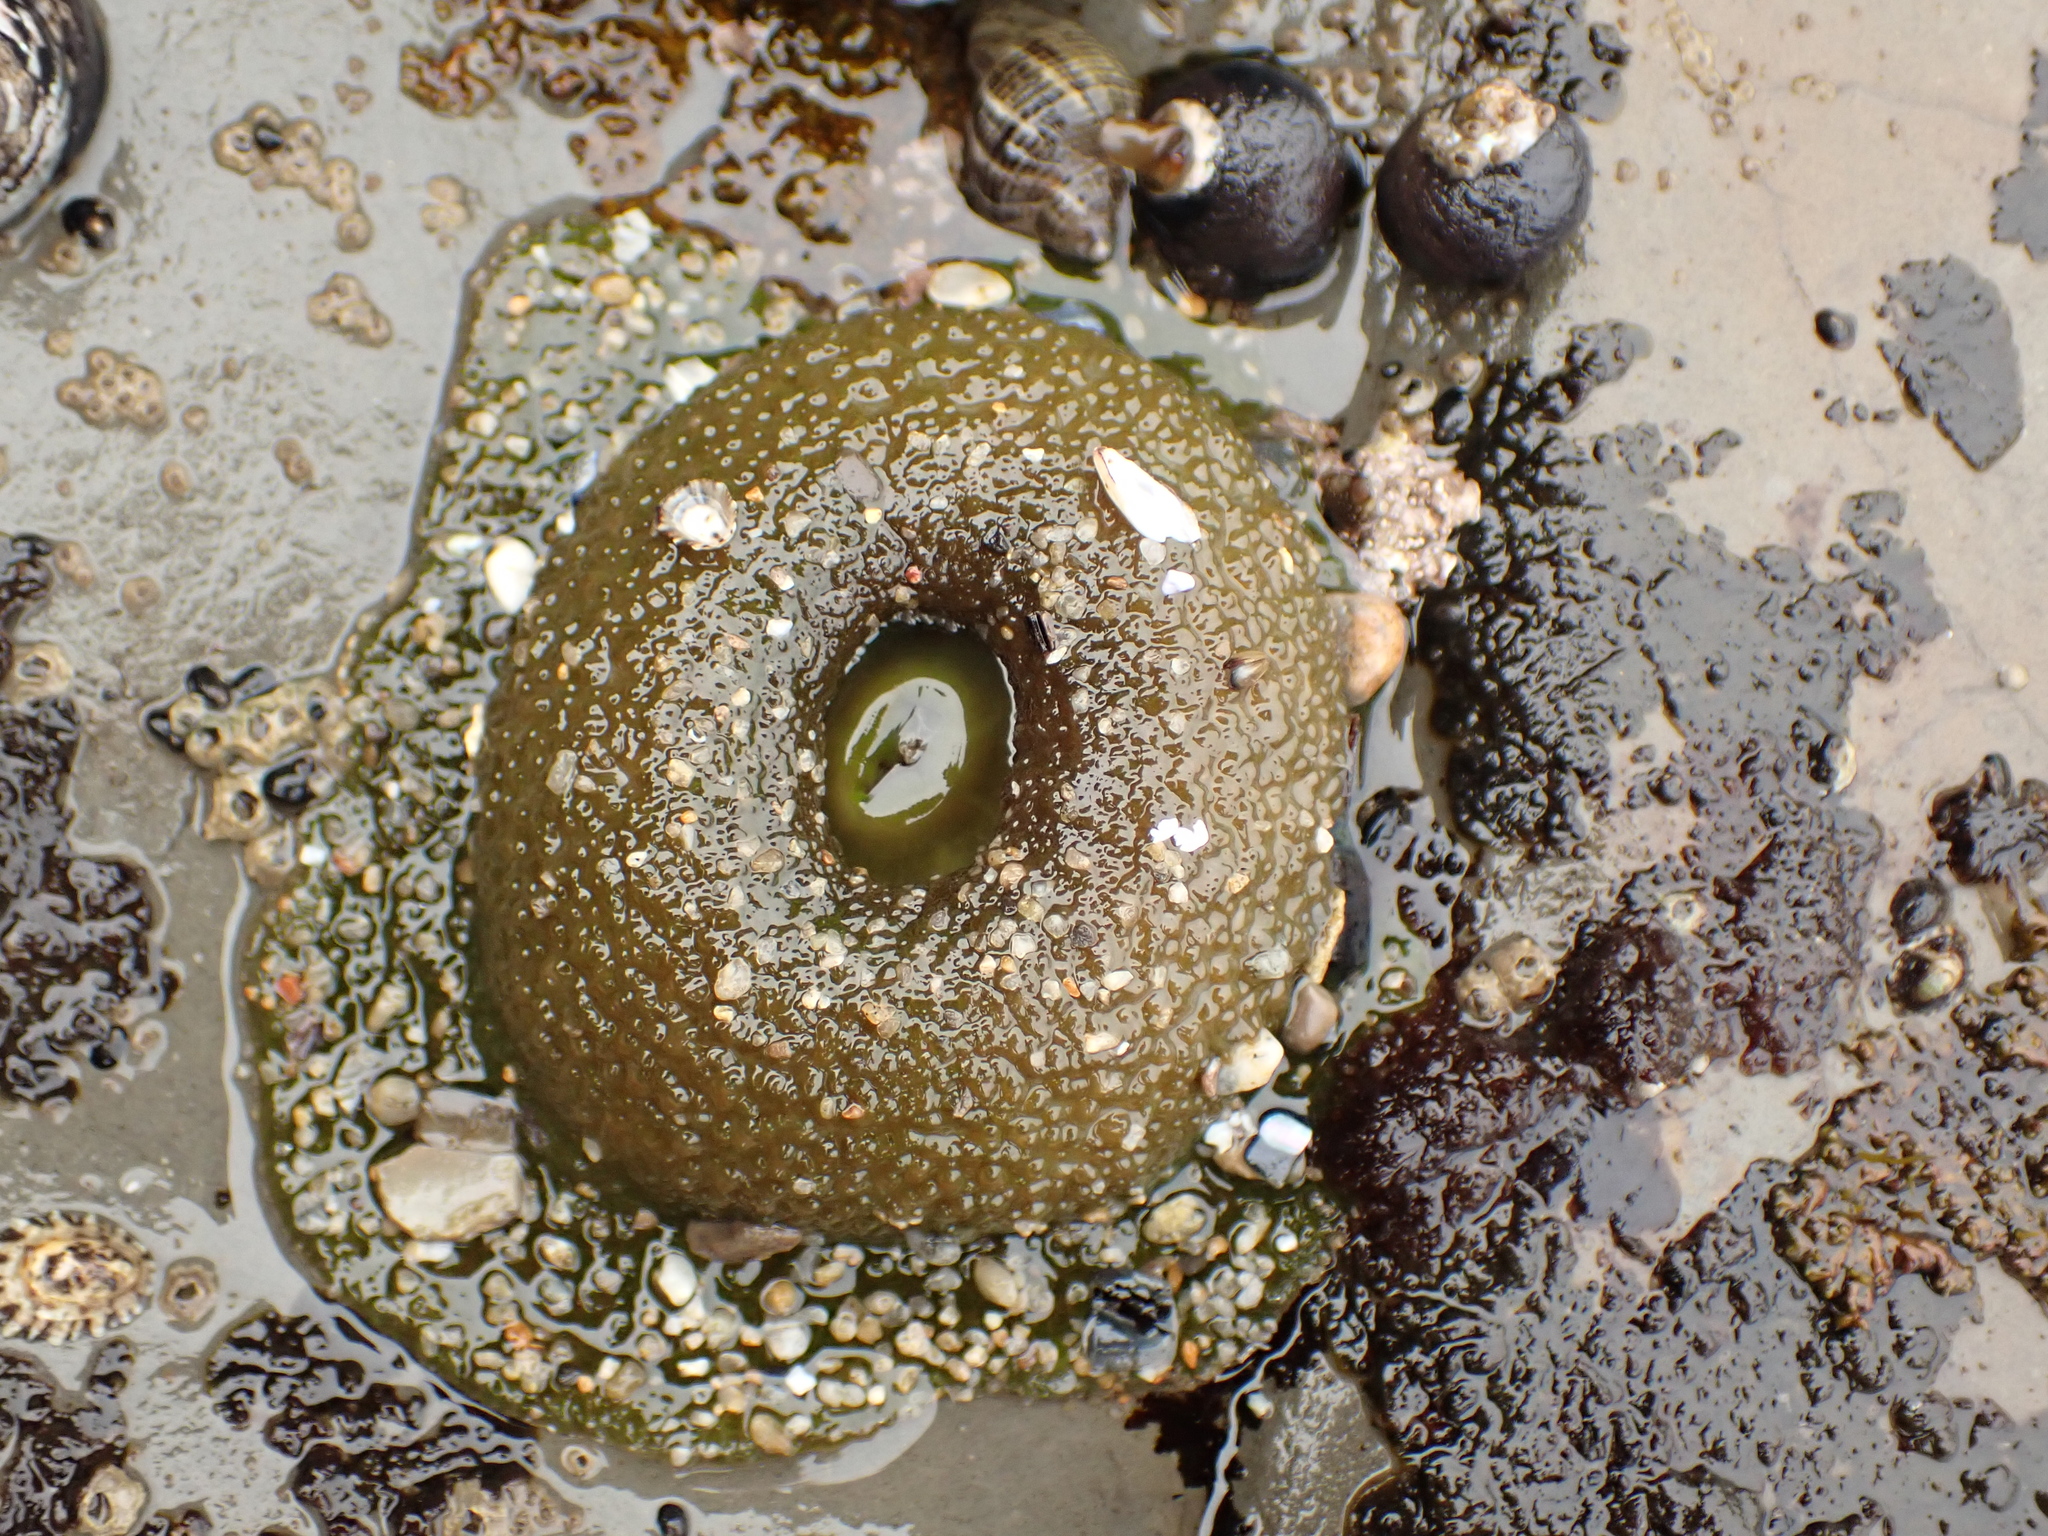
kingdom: Animalia
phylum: Cnidaria
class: Anthozoa
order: Actiniaria
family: Actiniidae
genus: Anthopleura
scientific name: Anthopleura xanthogrammica
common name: Giant green anemone
